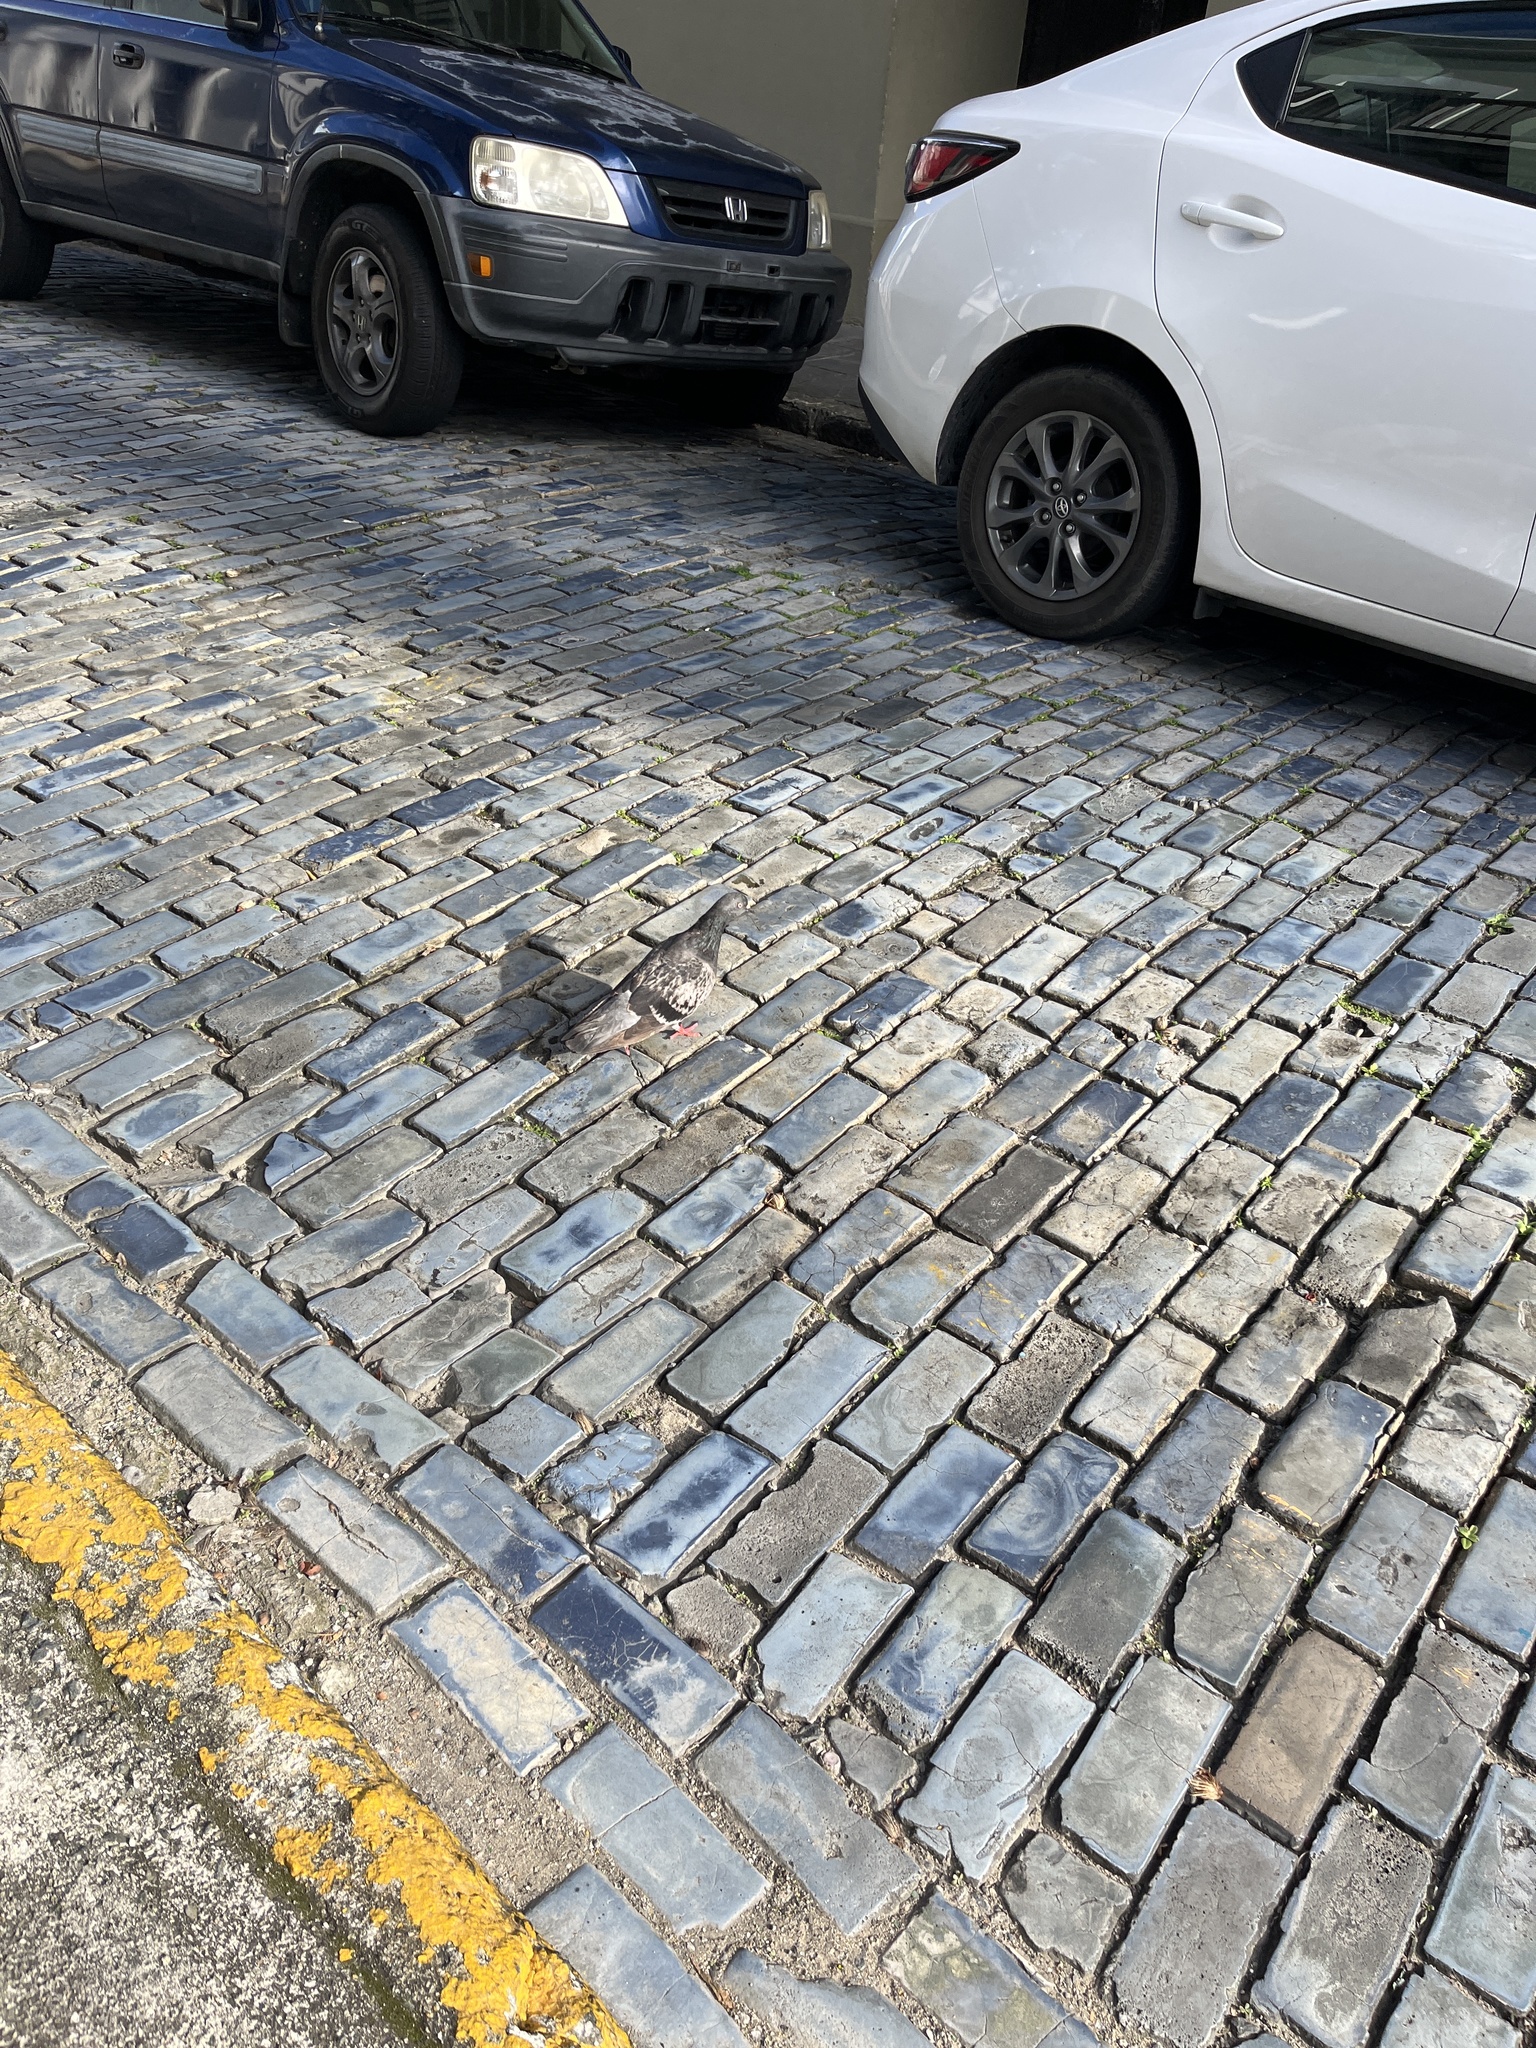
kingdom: Animalia
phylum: Chordata
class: Aves
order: Columbiformes
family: Columbidae
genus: Columba
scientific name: Columba livia
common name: Rock pigeon
